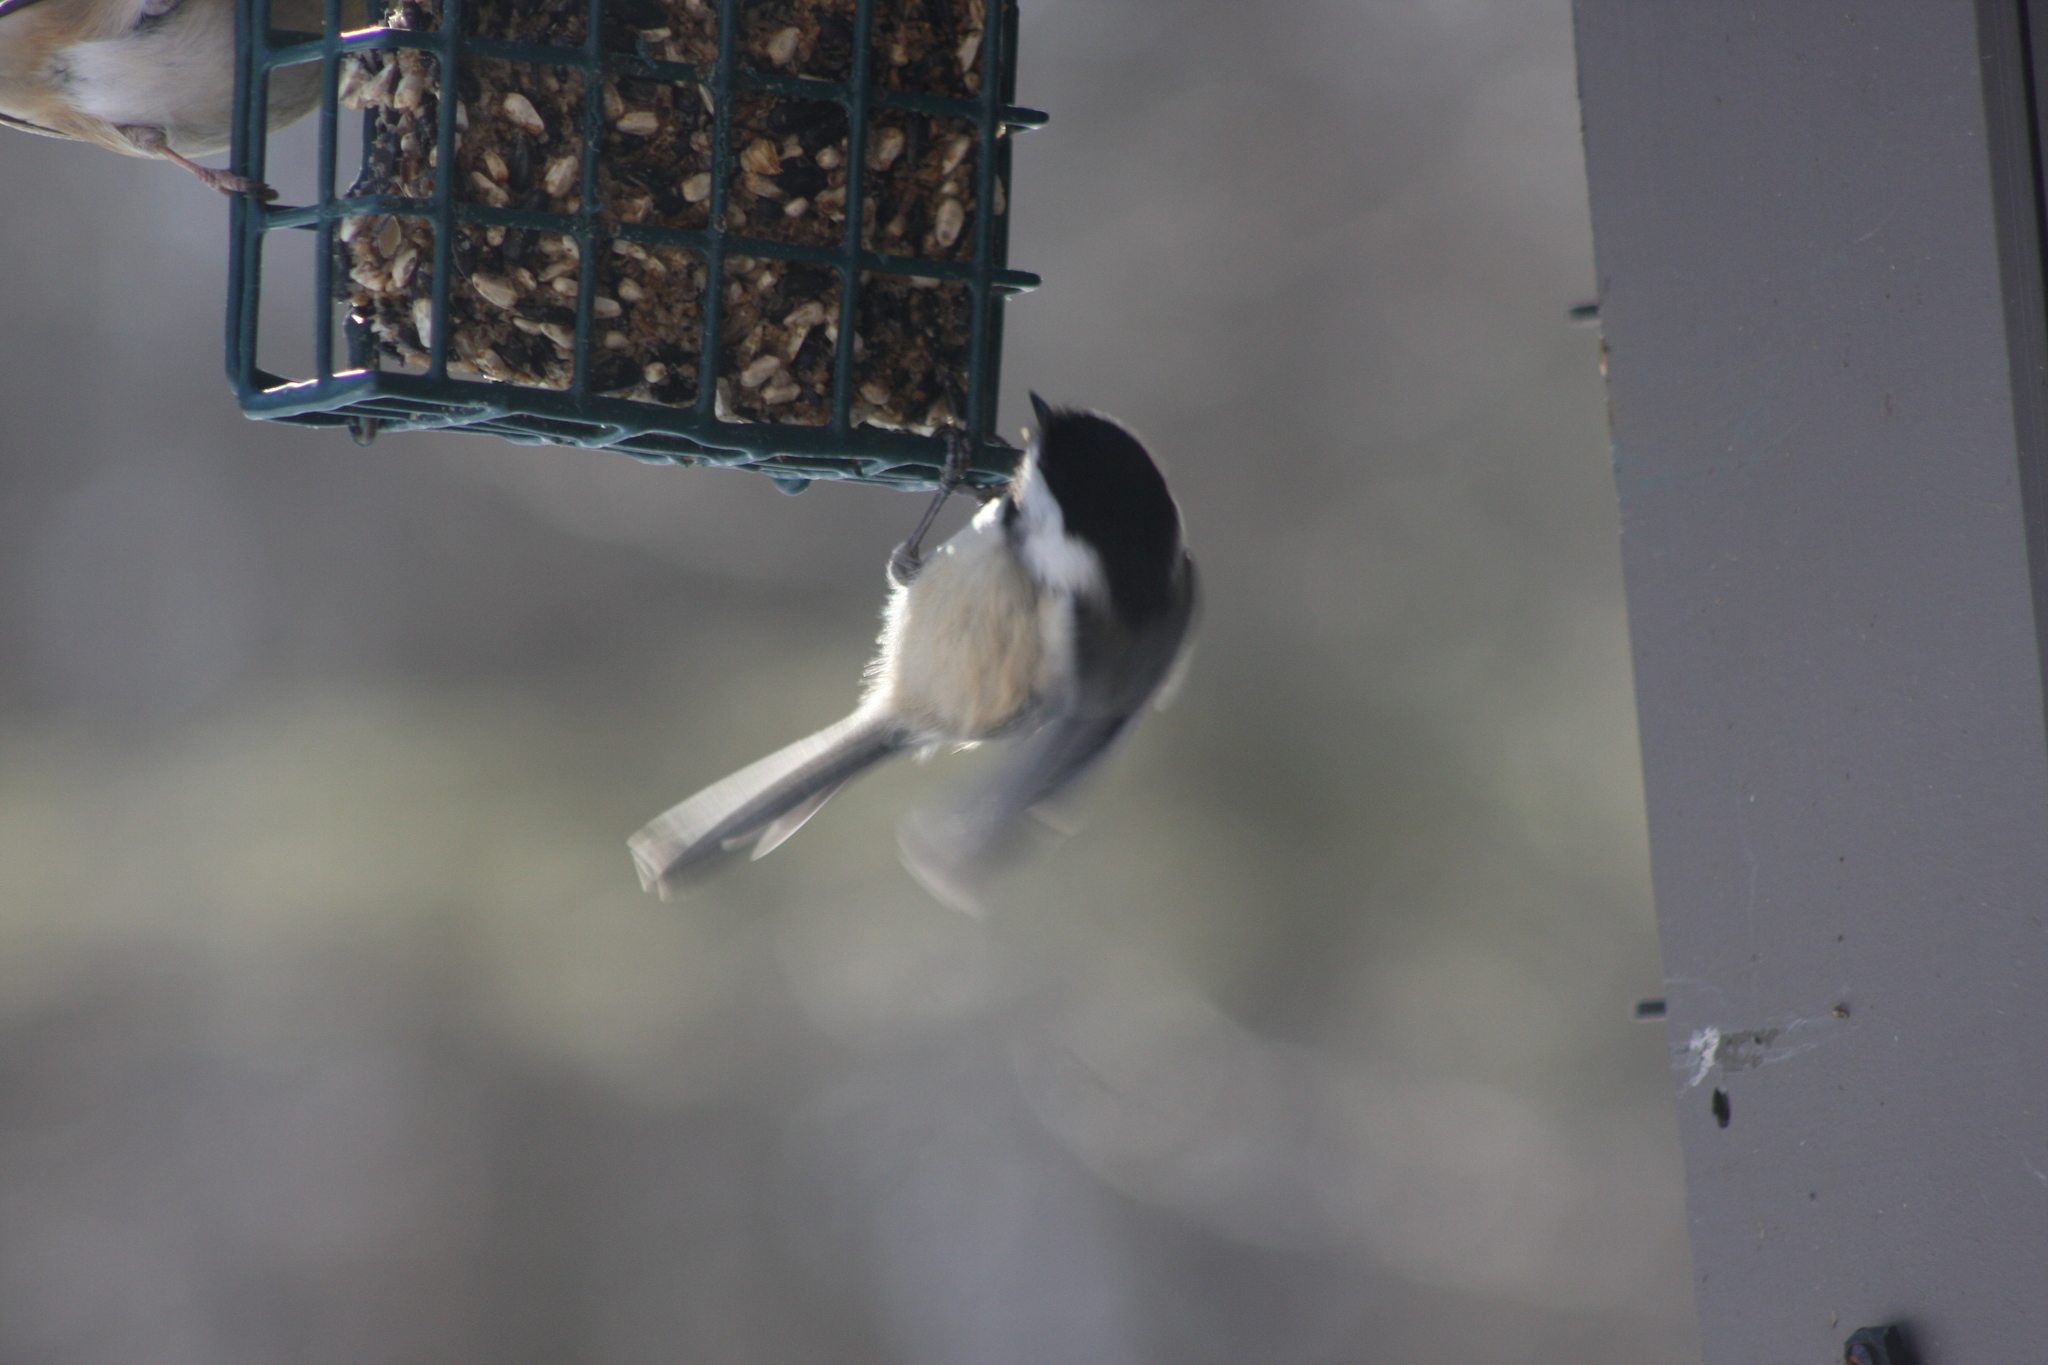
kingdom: Animalia
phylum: Chordata
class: Aves
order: Passeriformes
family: Paridae
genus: Poecile
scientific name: Poecile atricapillus
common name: Black-capped chickadee
